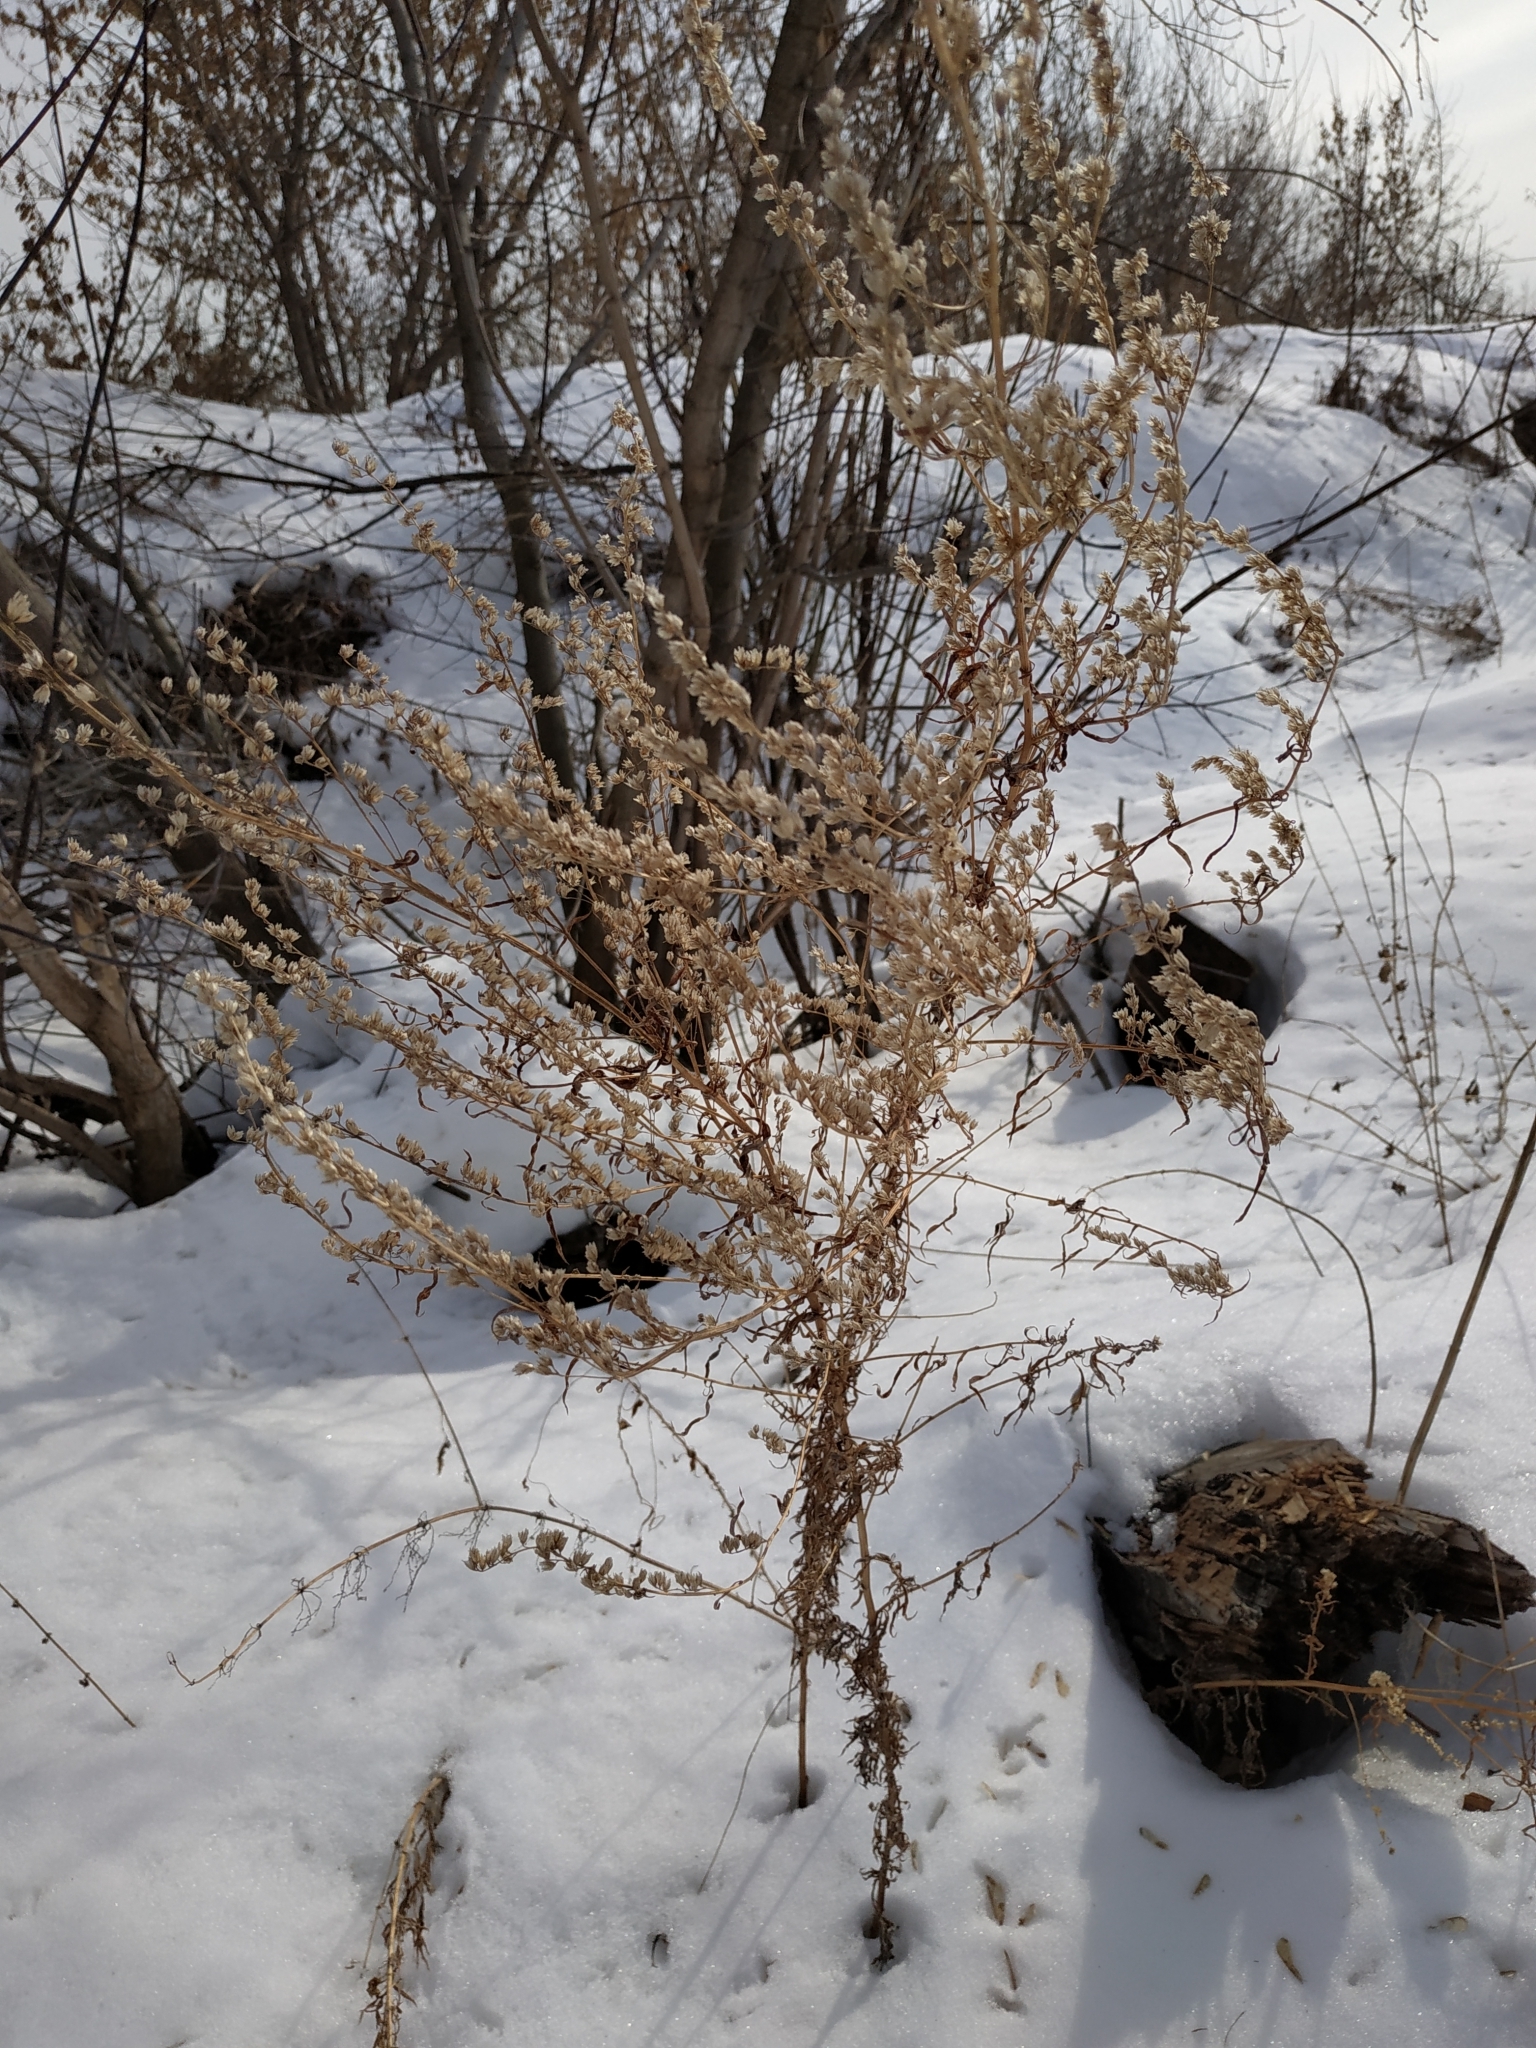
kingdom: Plantae
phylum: Tracheophyta
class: Magnoliopsida
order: Asterales
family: Asteraceae
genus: Artemisia
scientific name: Artemisia vulgaris
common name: Mugwort
